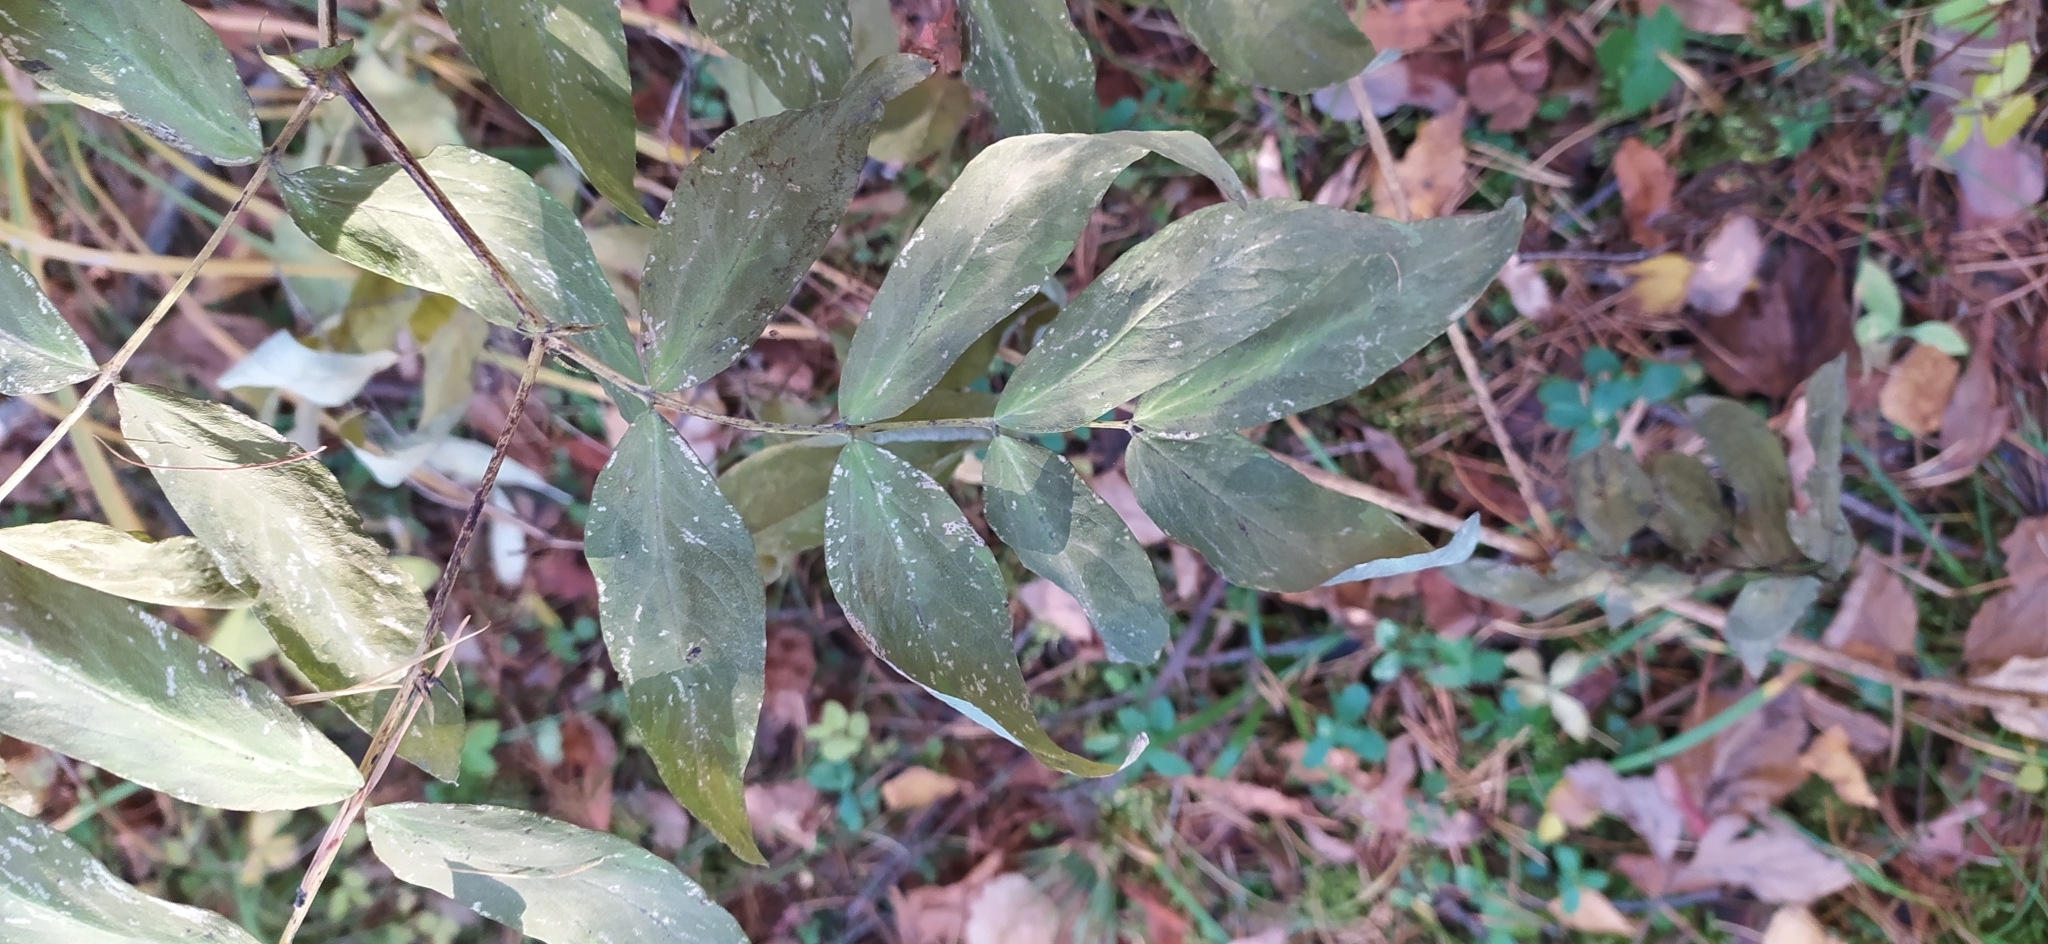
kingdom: Plantae
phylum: Tracheophyta
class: Magnoliopsida
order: Fabales
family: Fabaceae
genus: Lathyrus
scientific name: Lathyrus gmelinii
